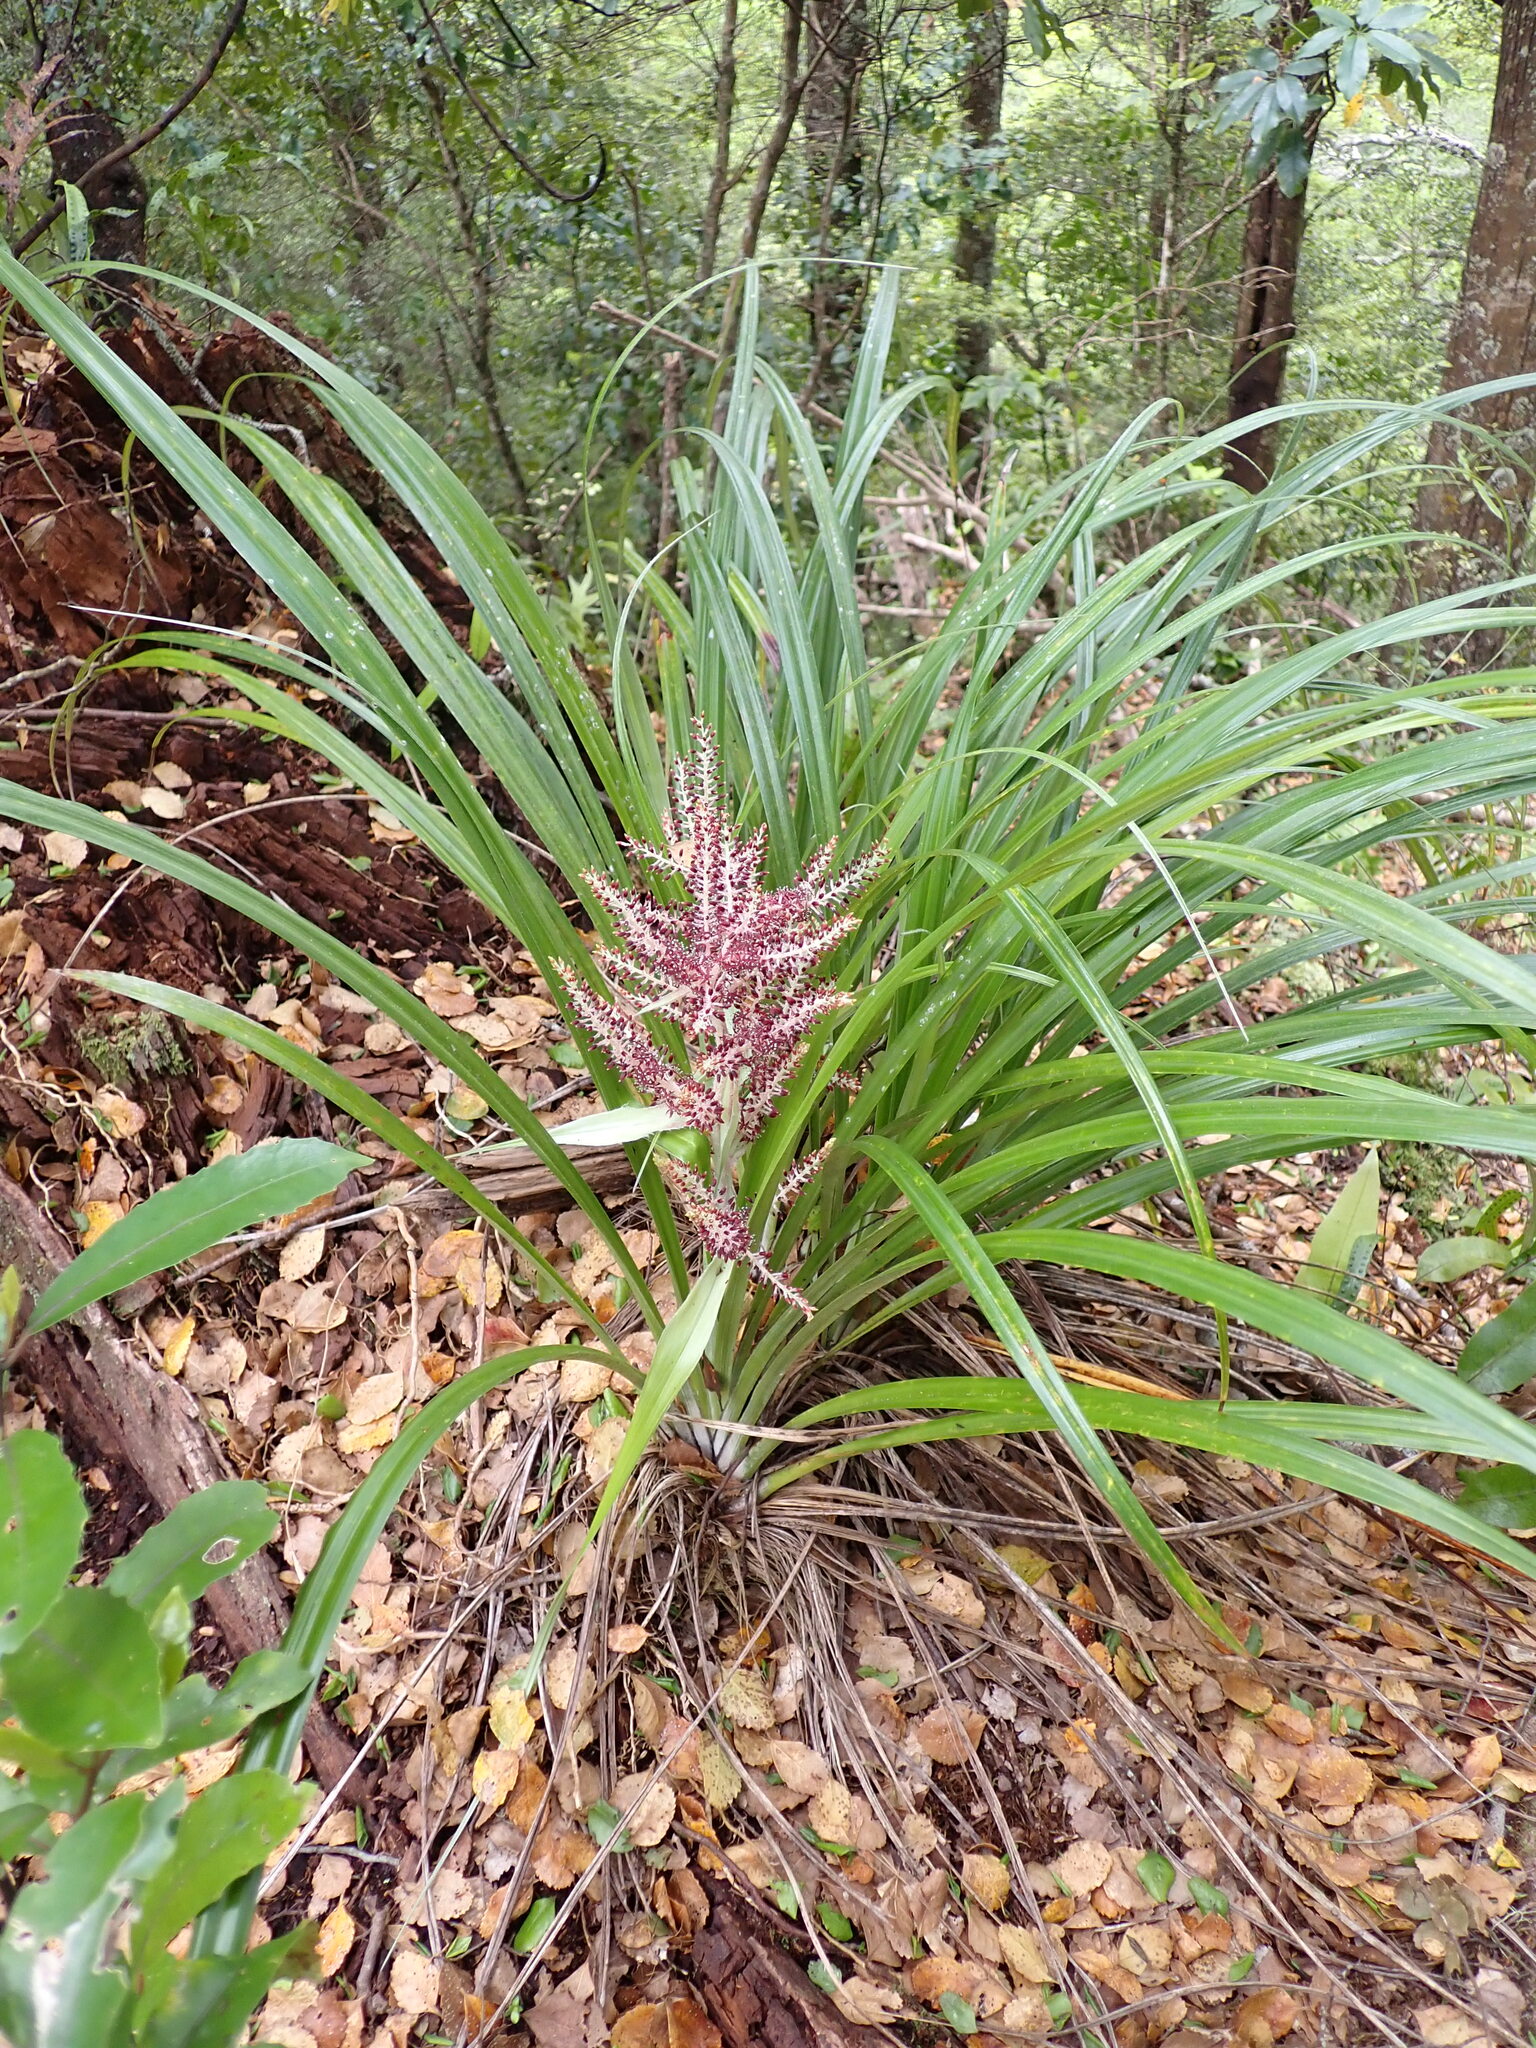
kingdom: Plantae
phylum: Tracheophyta
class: Liliopsida
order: Asparagales
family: Asteliaceae
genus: Astelia
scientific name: Astelia solandri
